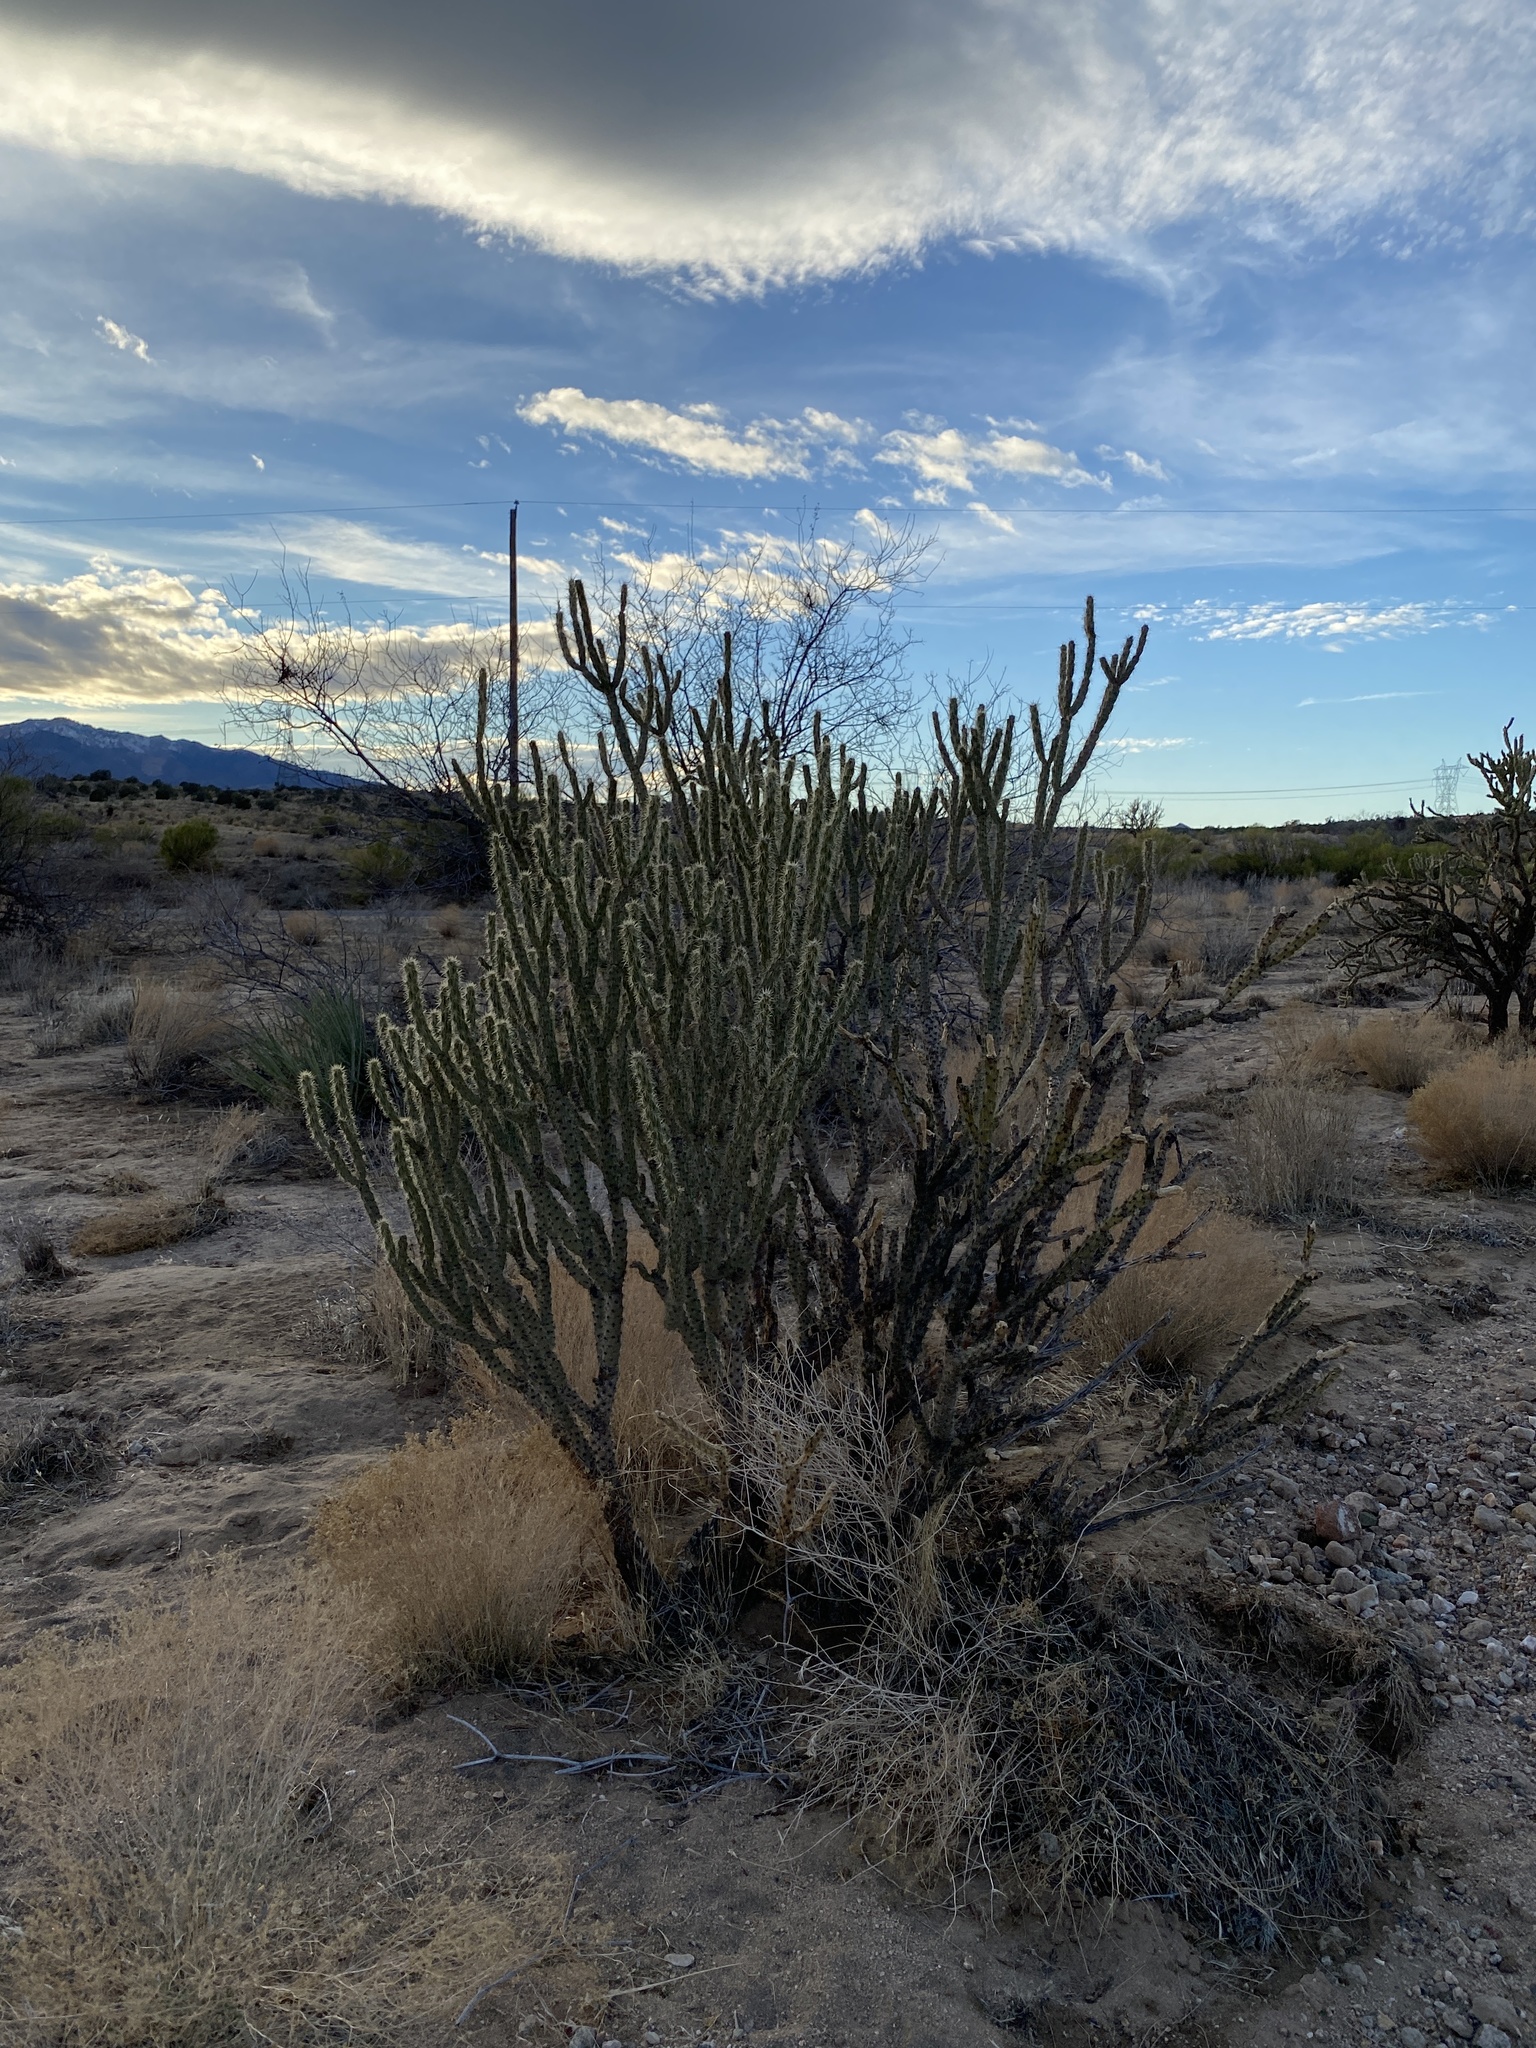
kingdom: Plantae
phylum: Tracheophyta
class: Magnoliopsida
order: Caryophyllales
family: Cactaceae
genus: Cylindropuntia
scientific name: Cylindropuntia acanthocarpa
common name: Buckhorn cholla
